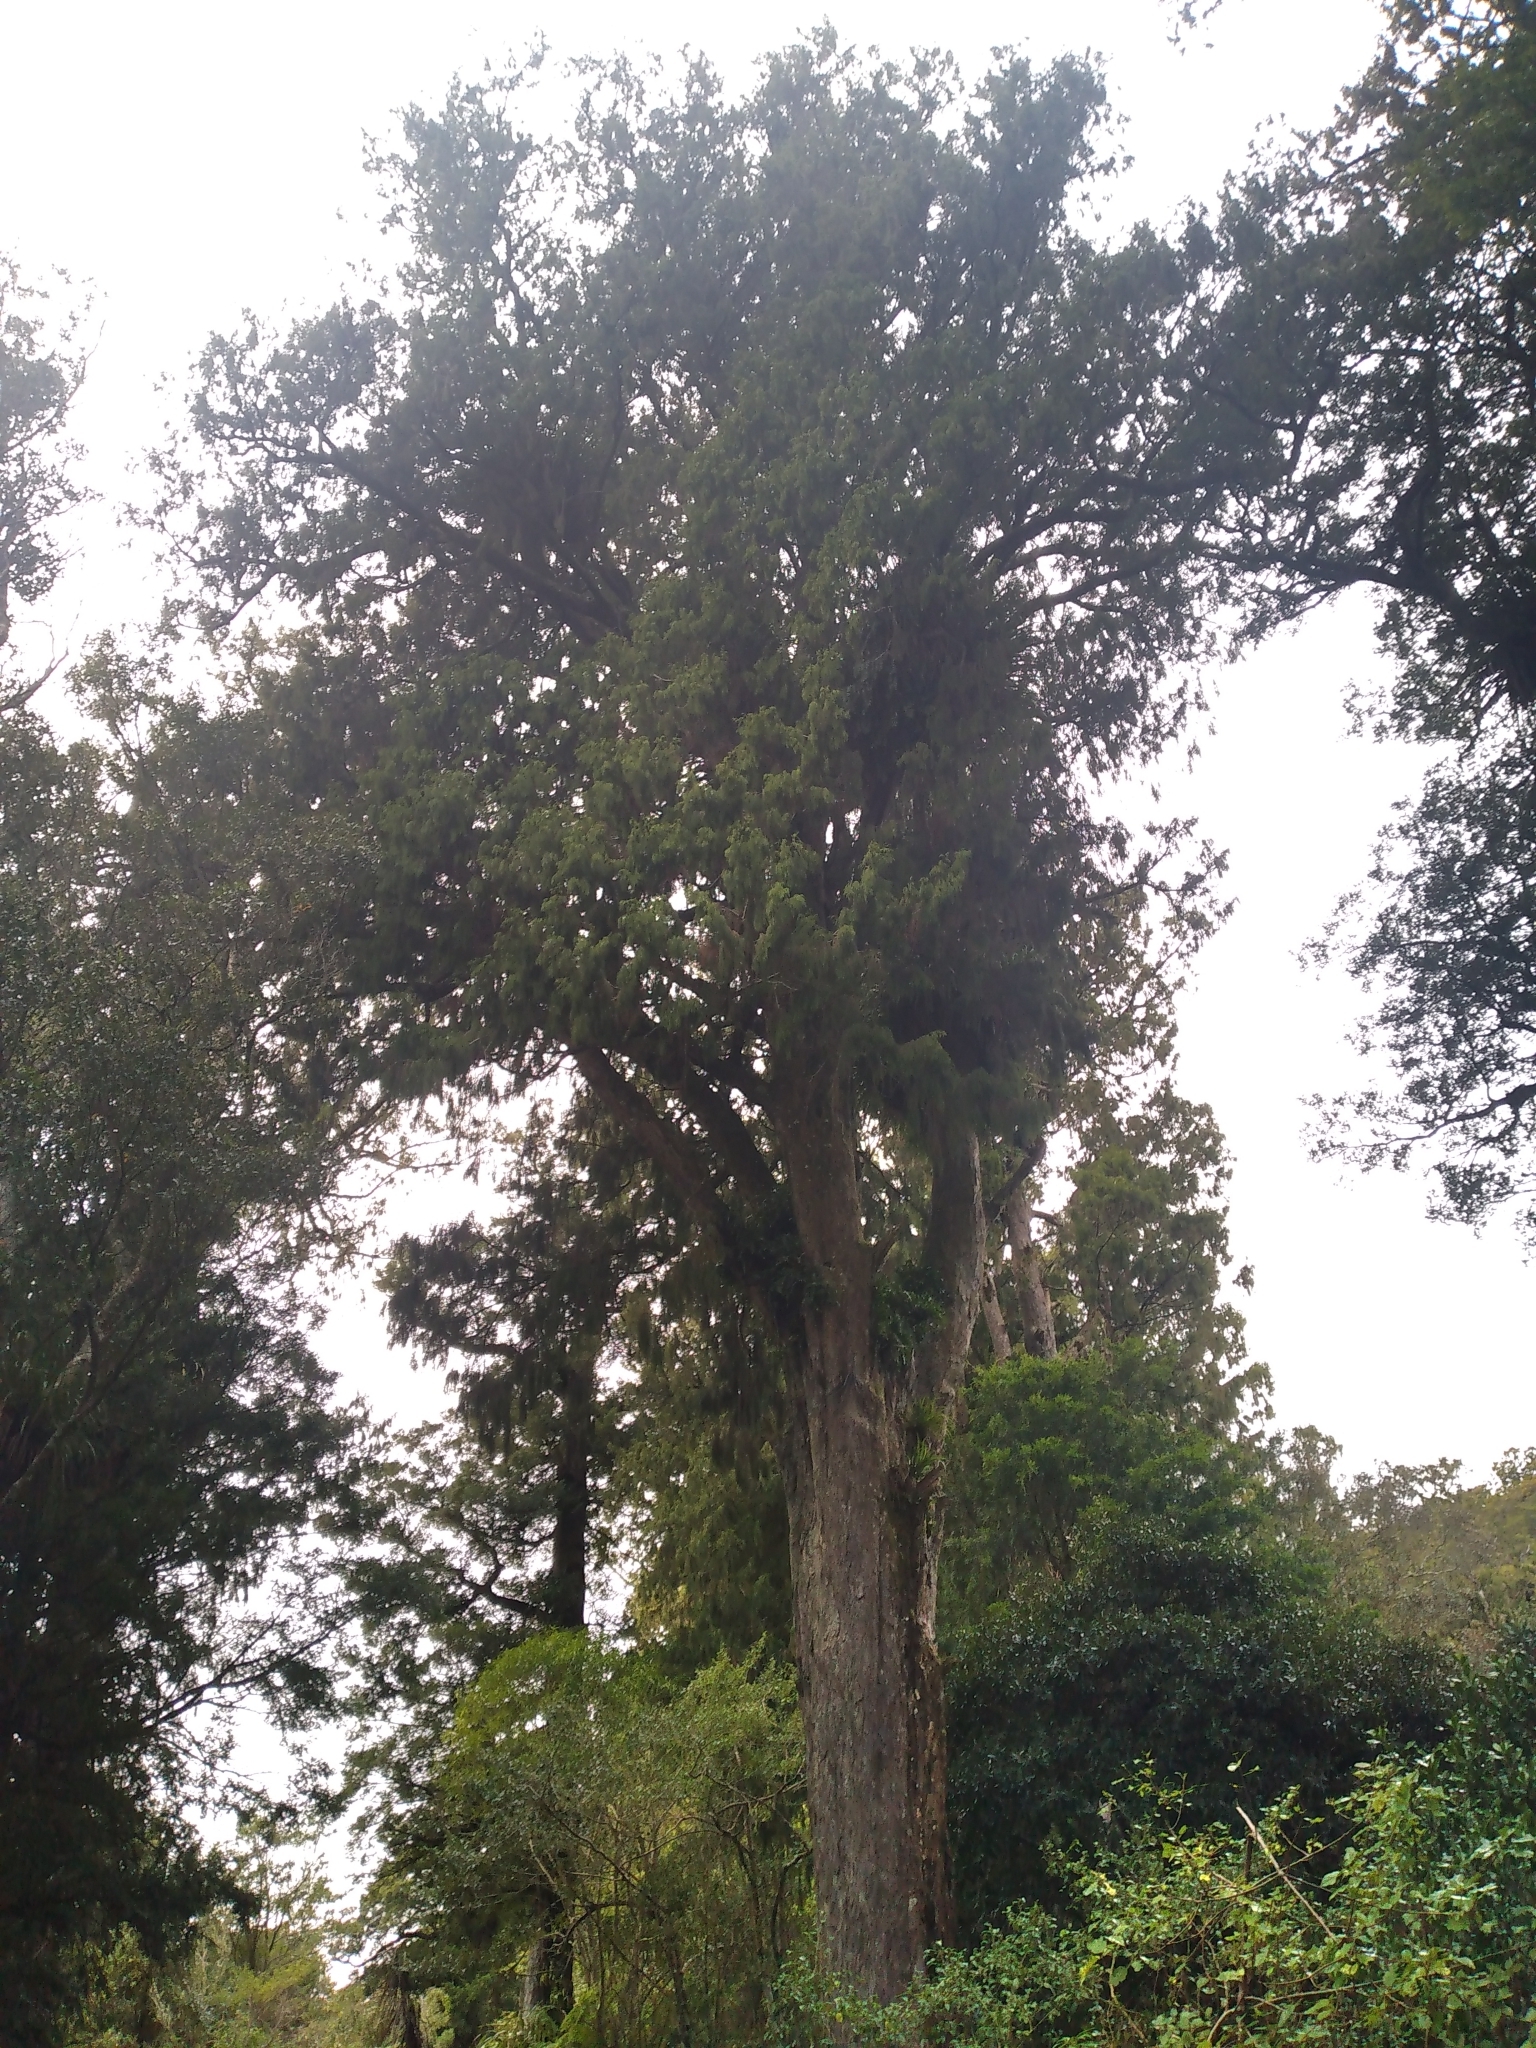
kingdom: Plantae
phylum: Tracheophyta
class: Pinopsida
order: Pinales
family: Podocarpaceae
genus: Dacrydium
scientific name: Dacrydium cupressinum
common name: Red pine
